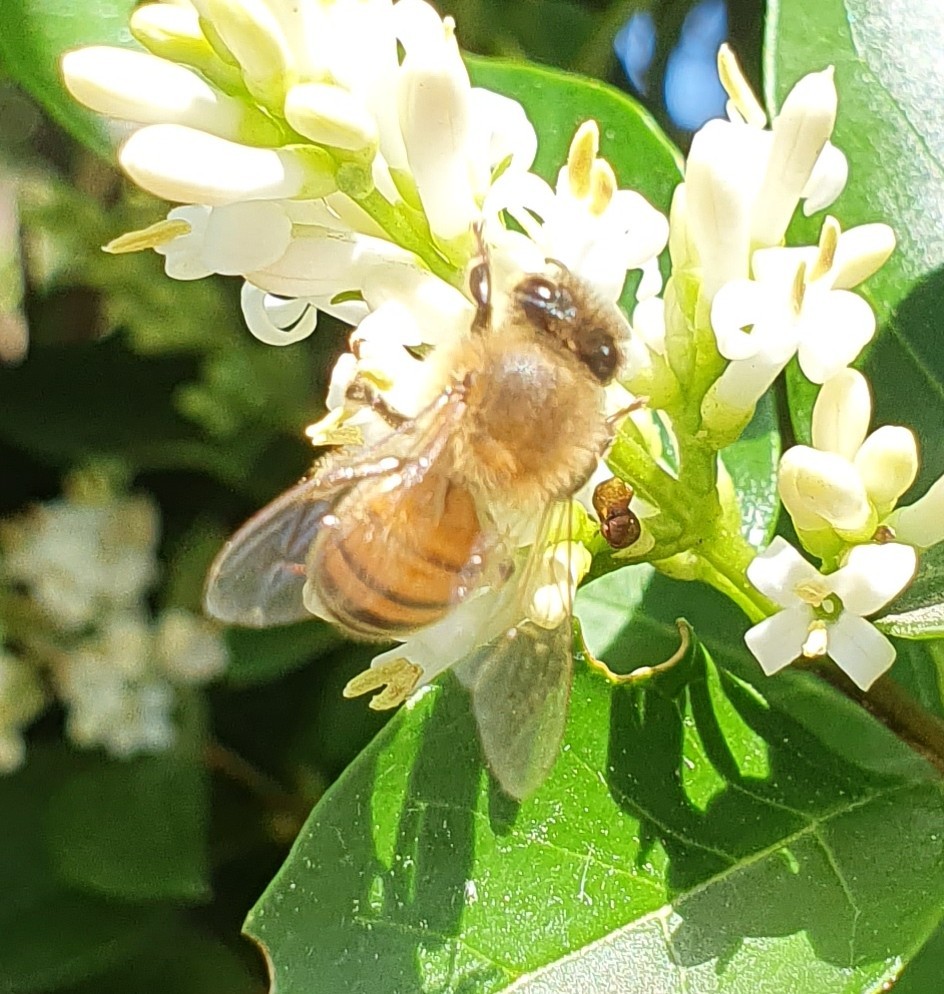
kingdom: Animalia
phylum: Arthropoda
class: Insecta
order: Hymenoptera
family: Apidae
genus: Apis
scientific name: Apis mellifera
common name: Honey bee
